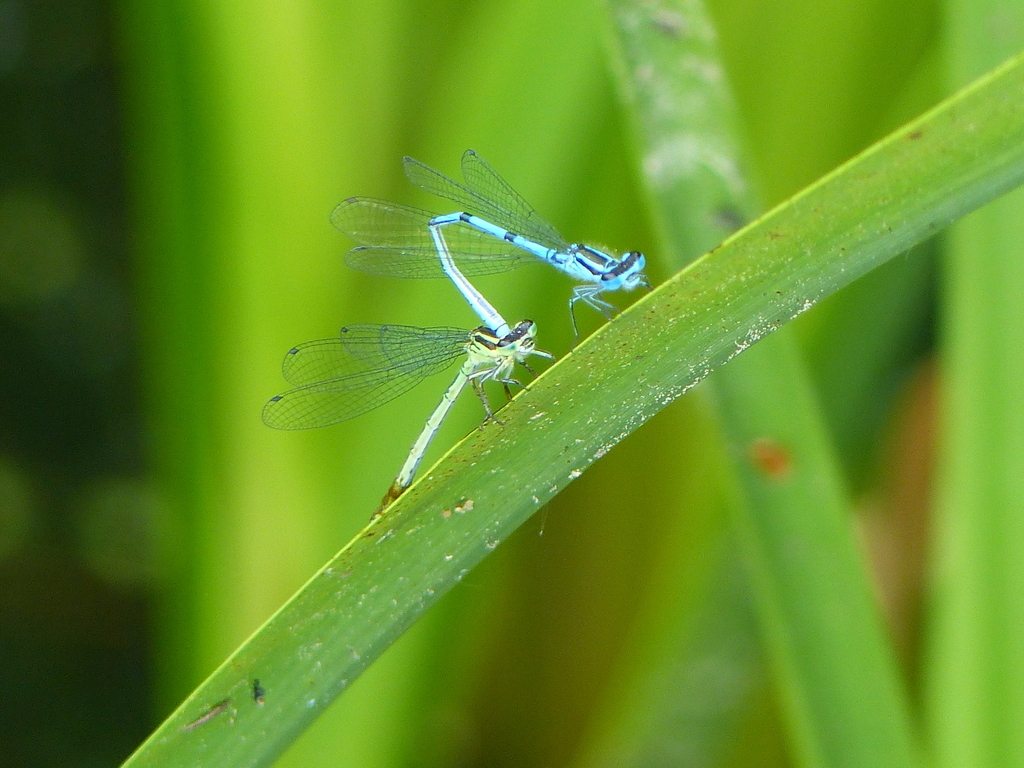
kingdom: Animalia
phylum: Arthropoda
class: Insecta
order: Odonata
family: Coenagrionidae
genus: Coenagrion
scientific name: Coenagrion puella
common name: Azure damselfly
